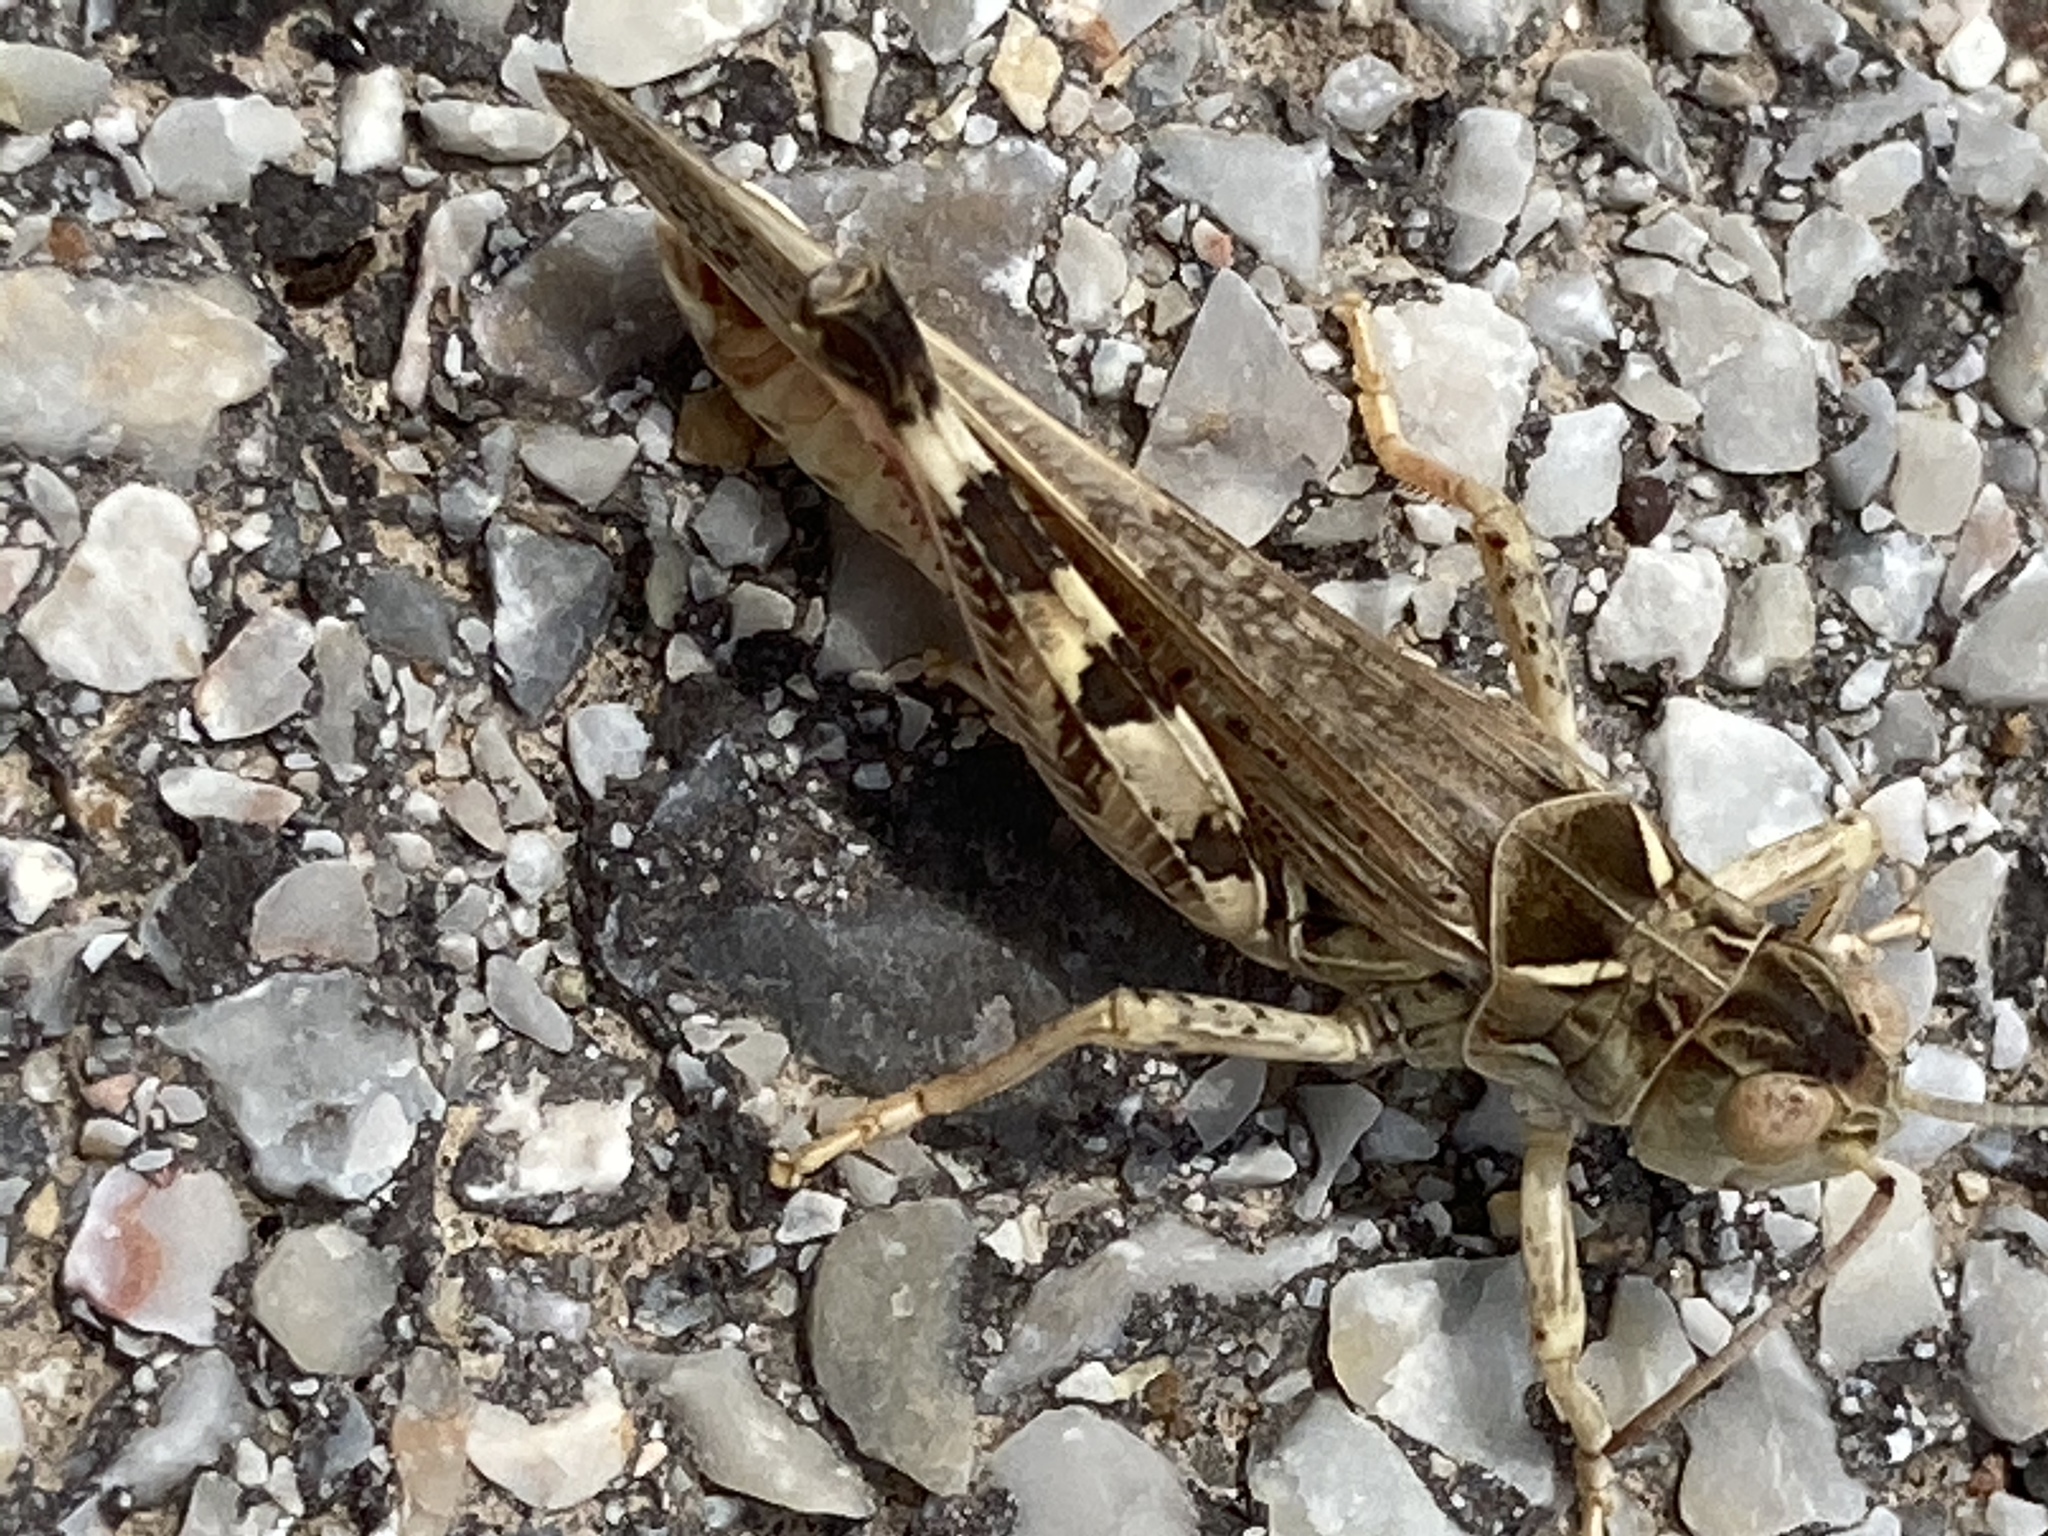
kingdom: Animalia
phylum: Arthropoda
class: Insecta
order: Orthoptera
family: Acrididae
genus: Dociostaurus
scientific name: Dociostaurus maroccanus
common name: Moroccan locust
